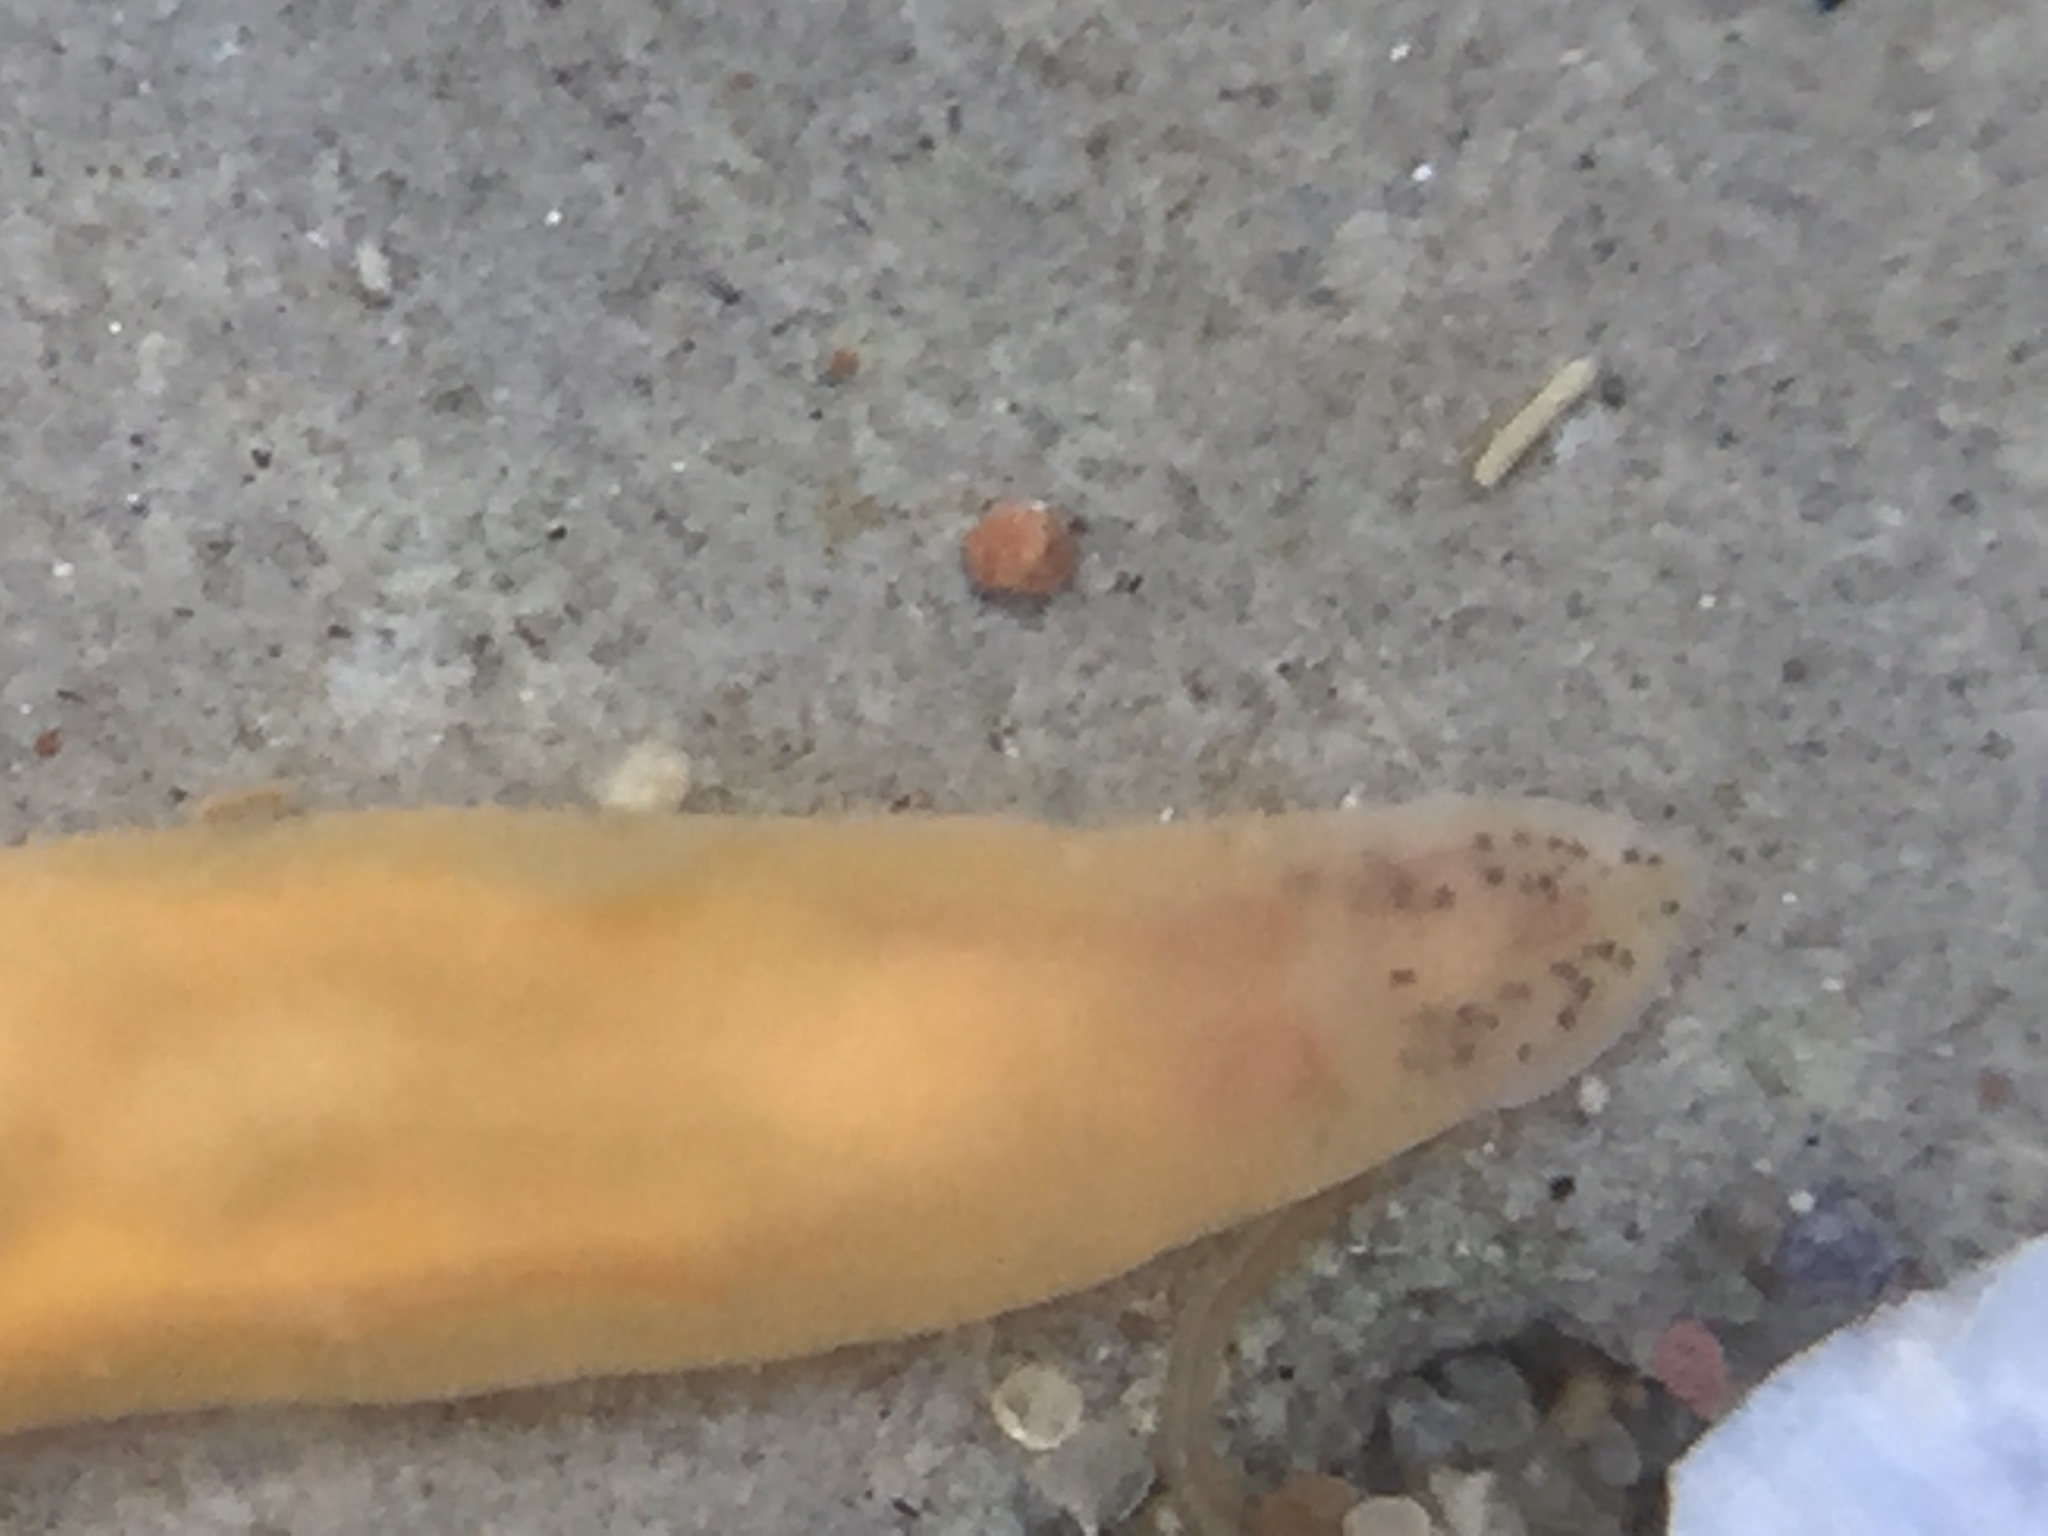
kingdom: Animalia
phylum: Nemertea
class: Hoplonemertea
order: Monostilifera
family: Cratenemertidae
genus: Nipponnemertes
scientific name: Nipponnemertes sanguinea
